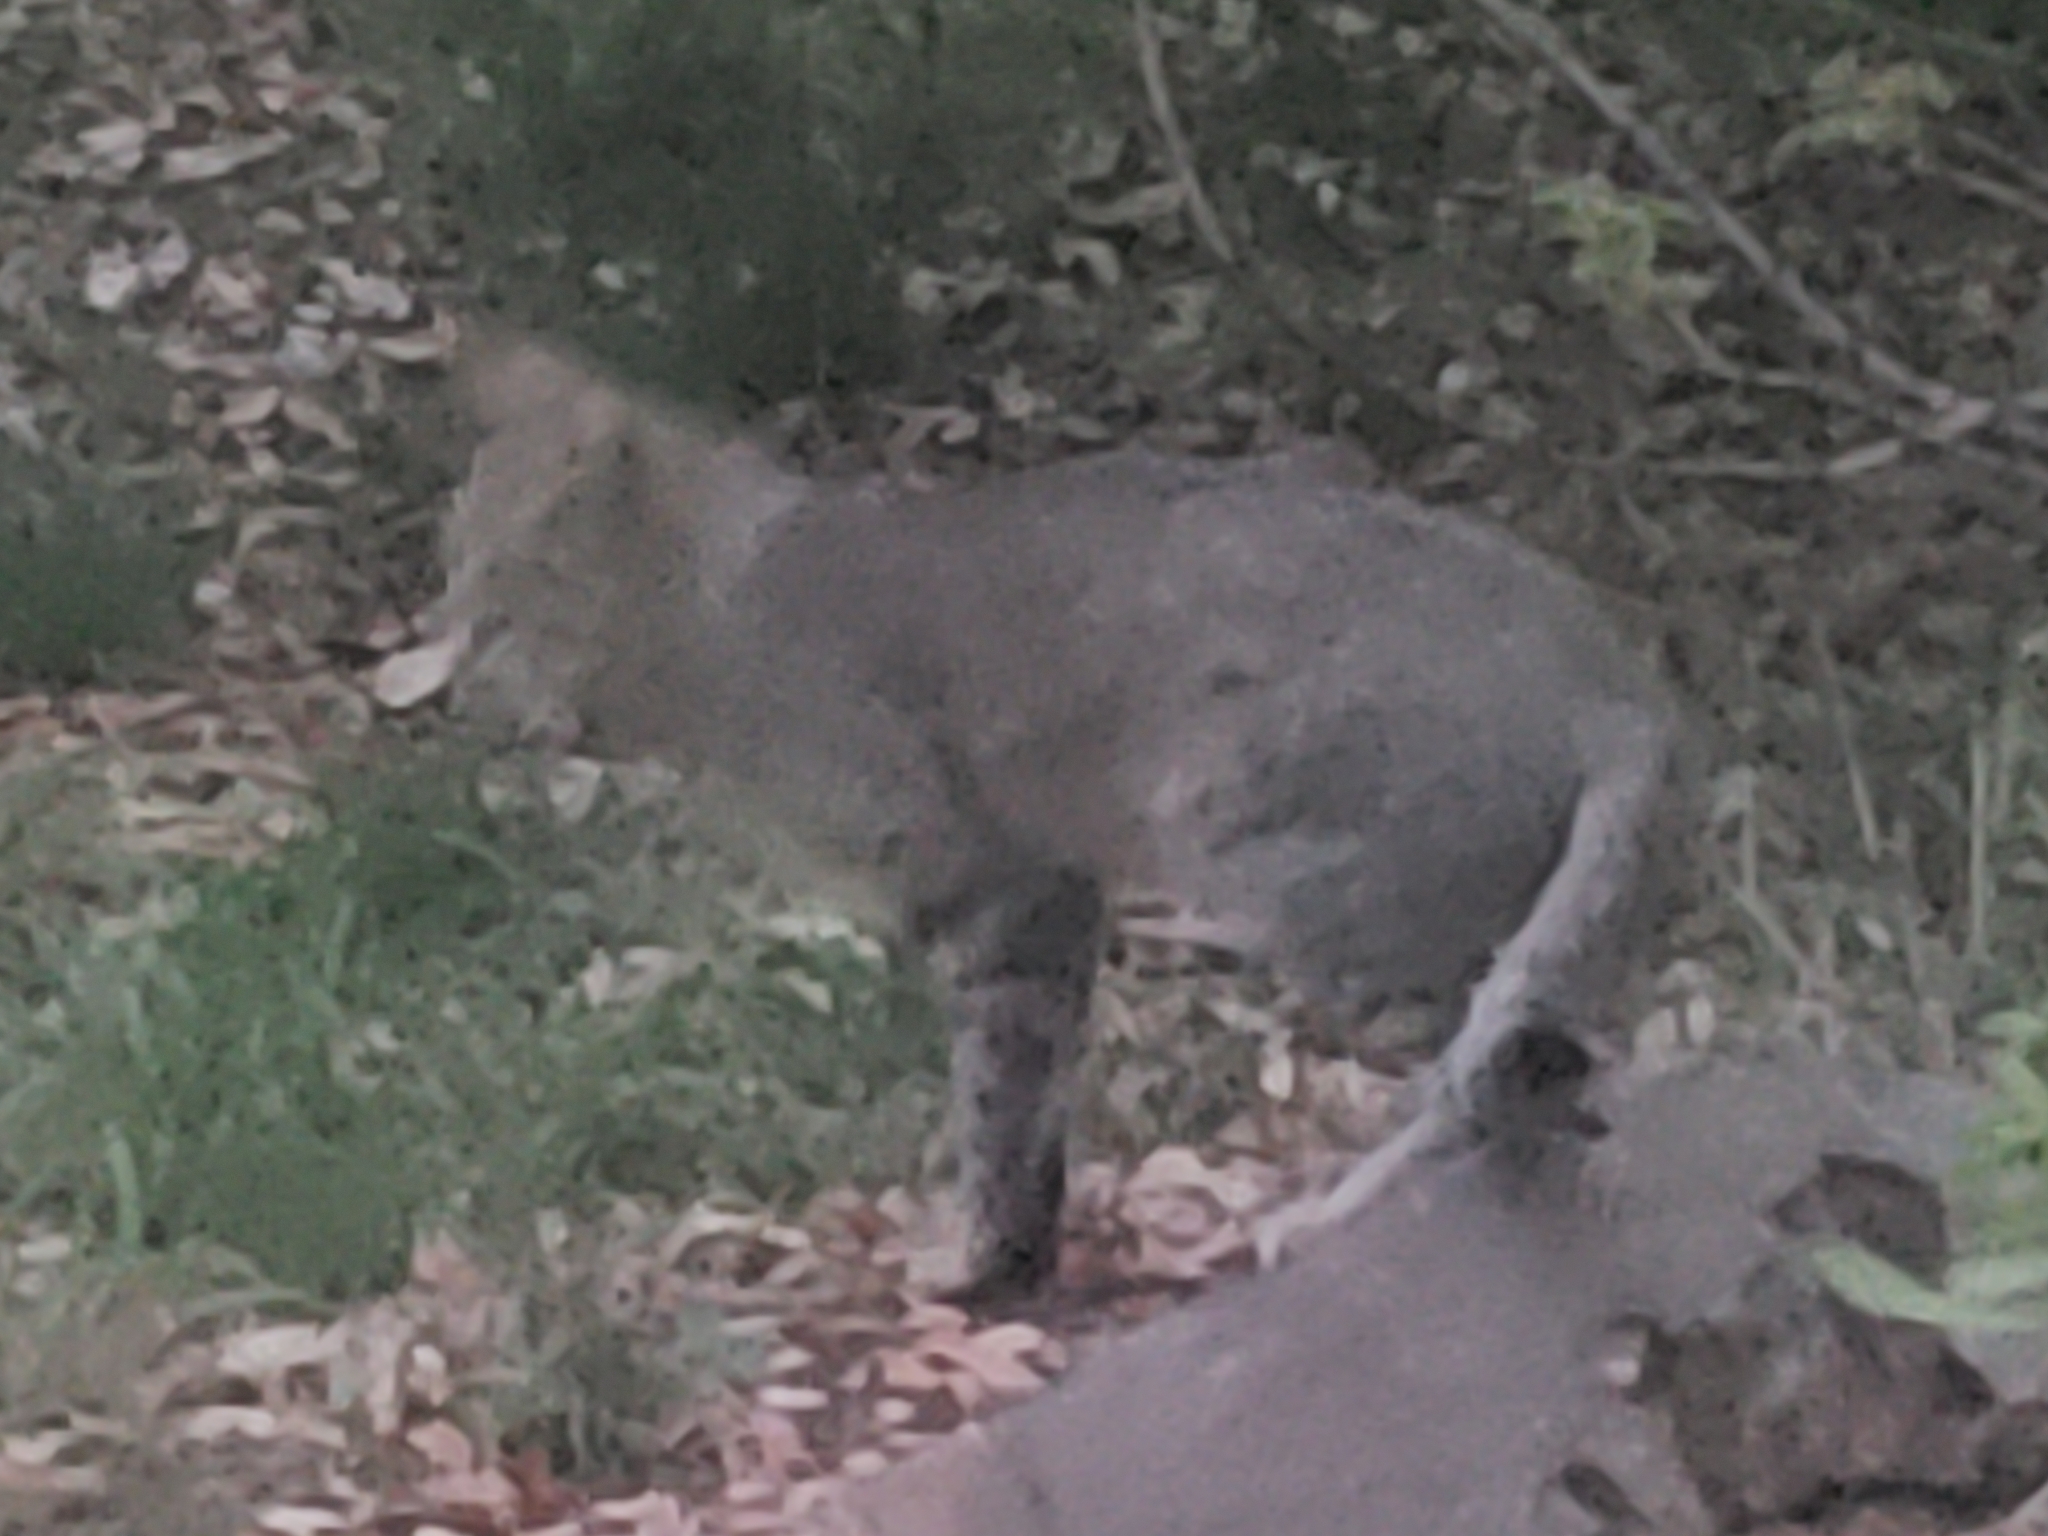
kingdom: Animalia
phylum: Chordata
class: Mammalia
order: Carnivora
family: Felidae
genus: Felis
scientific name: Felis silvestris
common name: Wildcat
